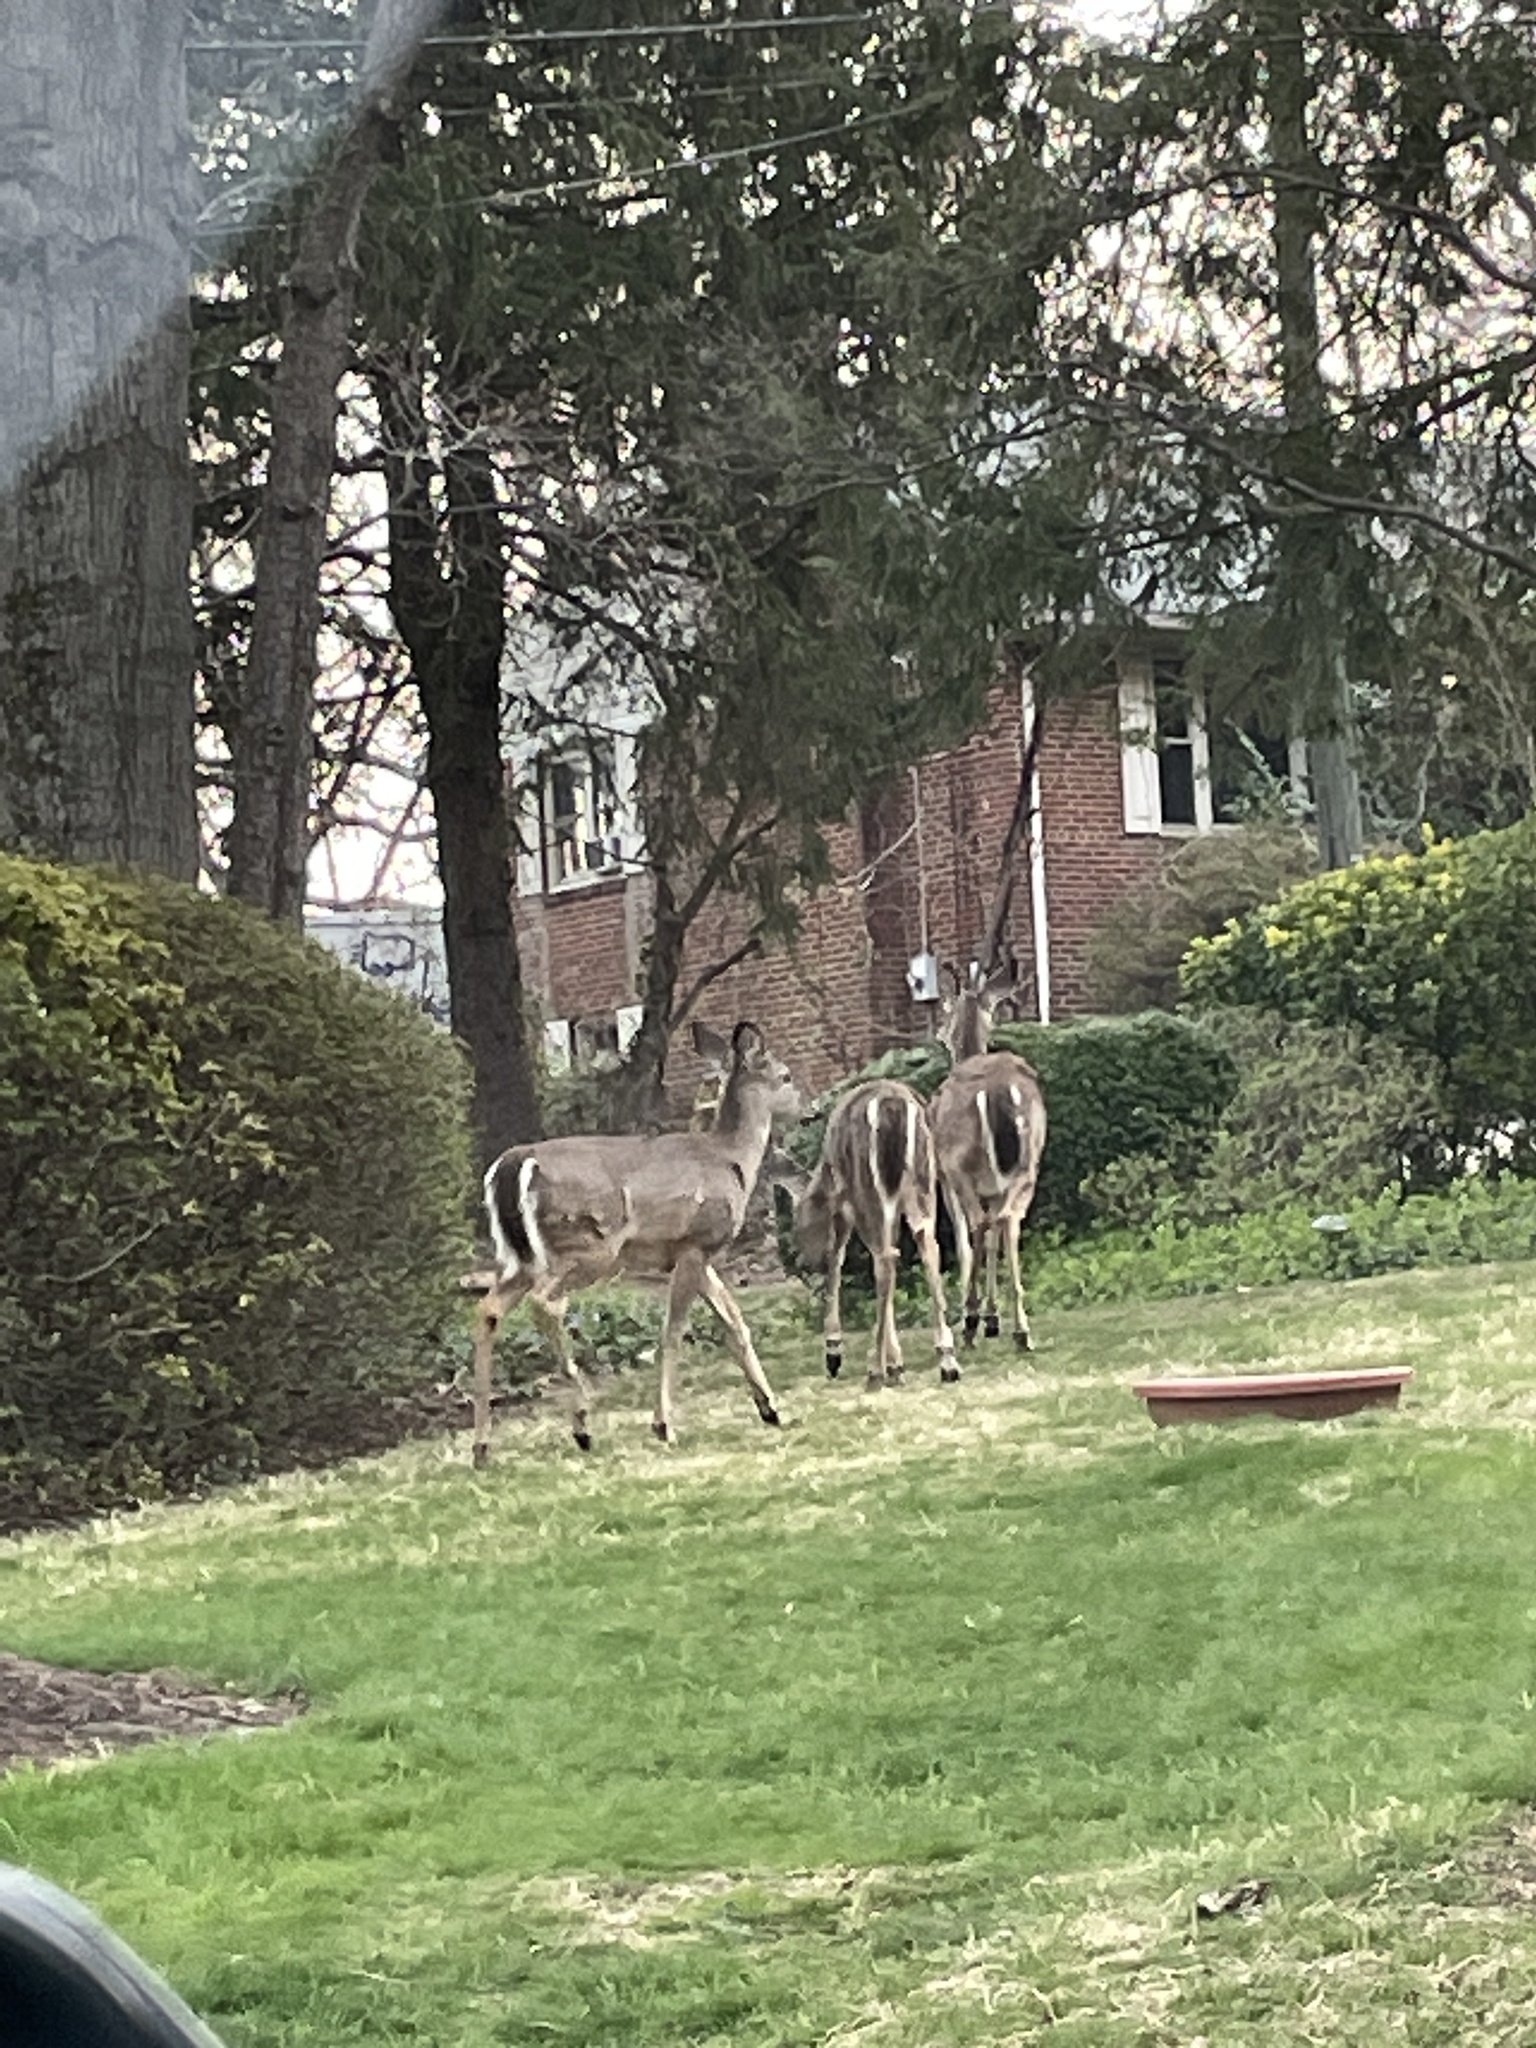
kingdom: Animalia
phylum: Chordata
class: Mammalia
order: Artiodactyla
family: Cervidae
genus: Odocoileus
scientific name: Odocoileus virginianus
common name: White-tailed deer
